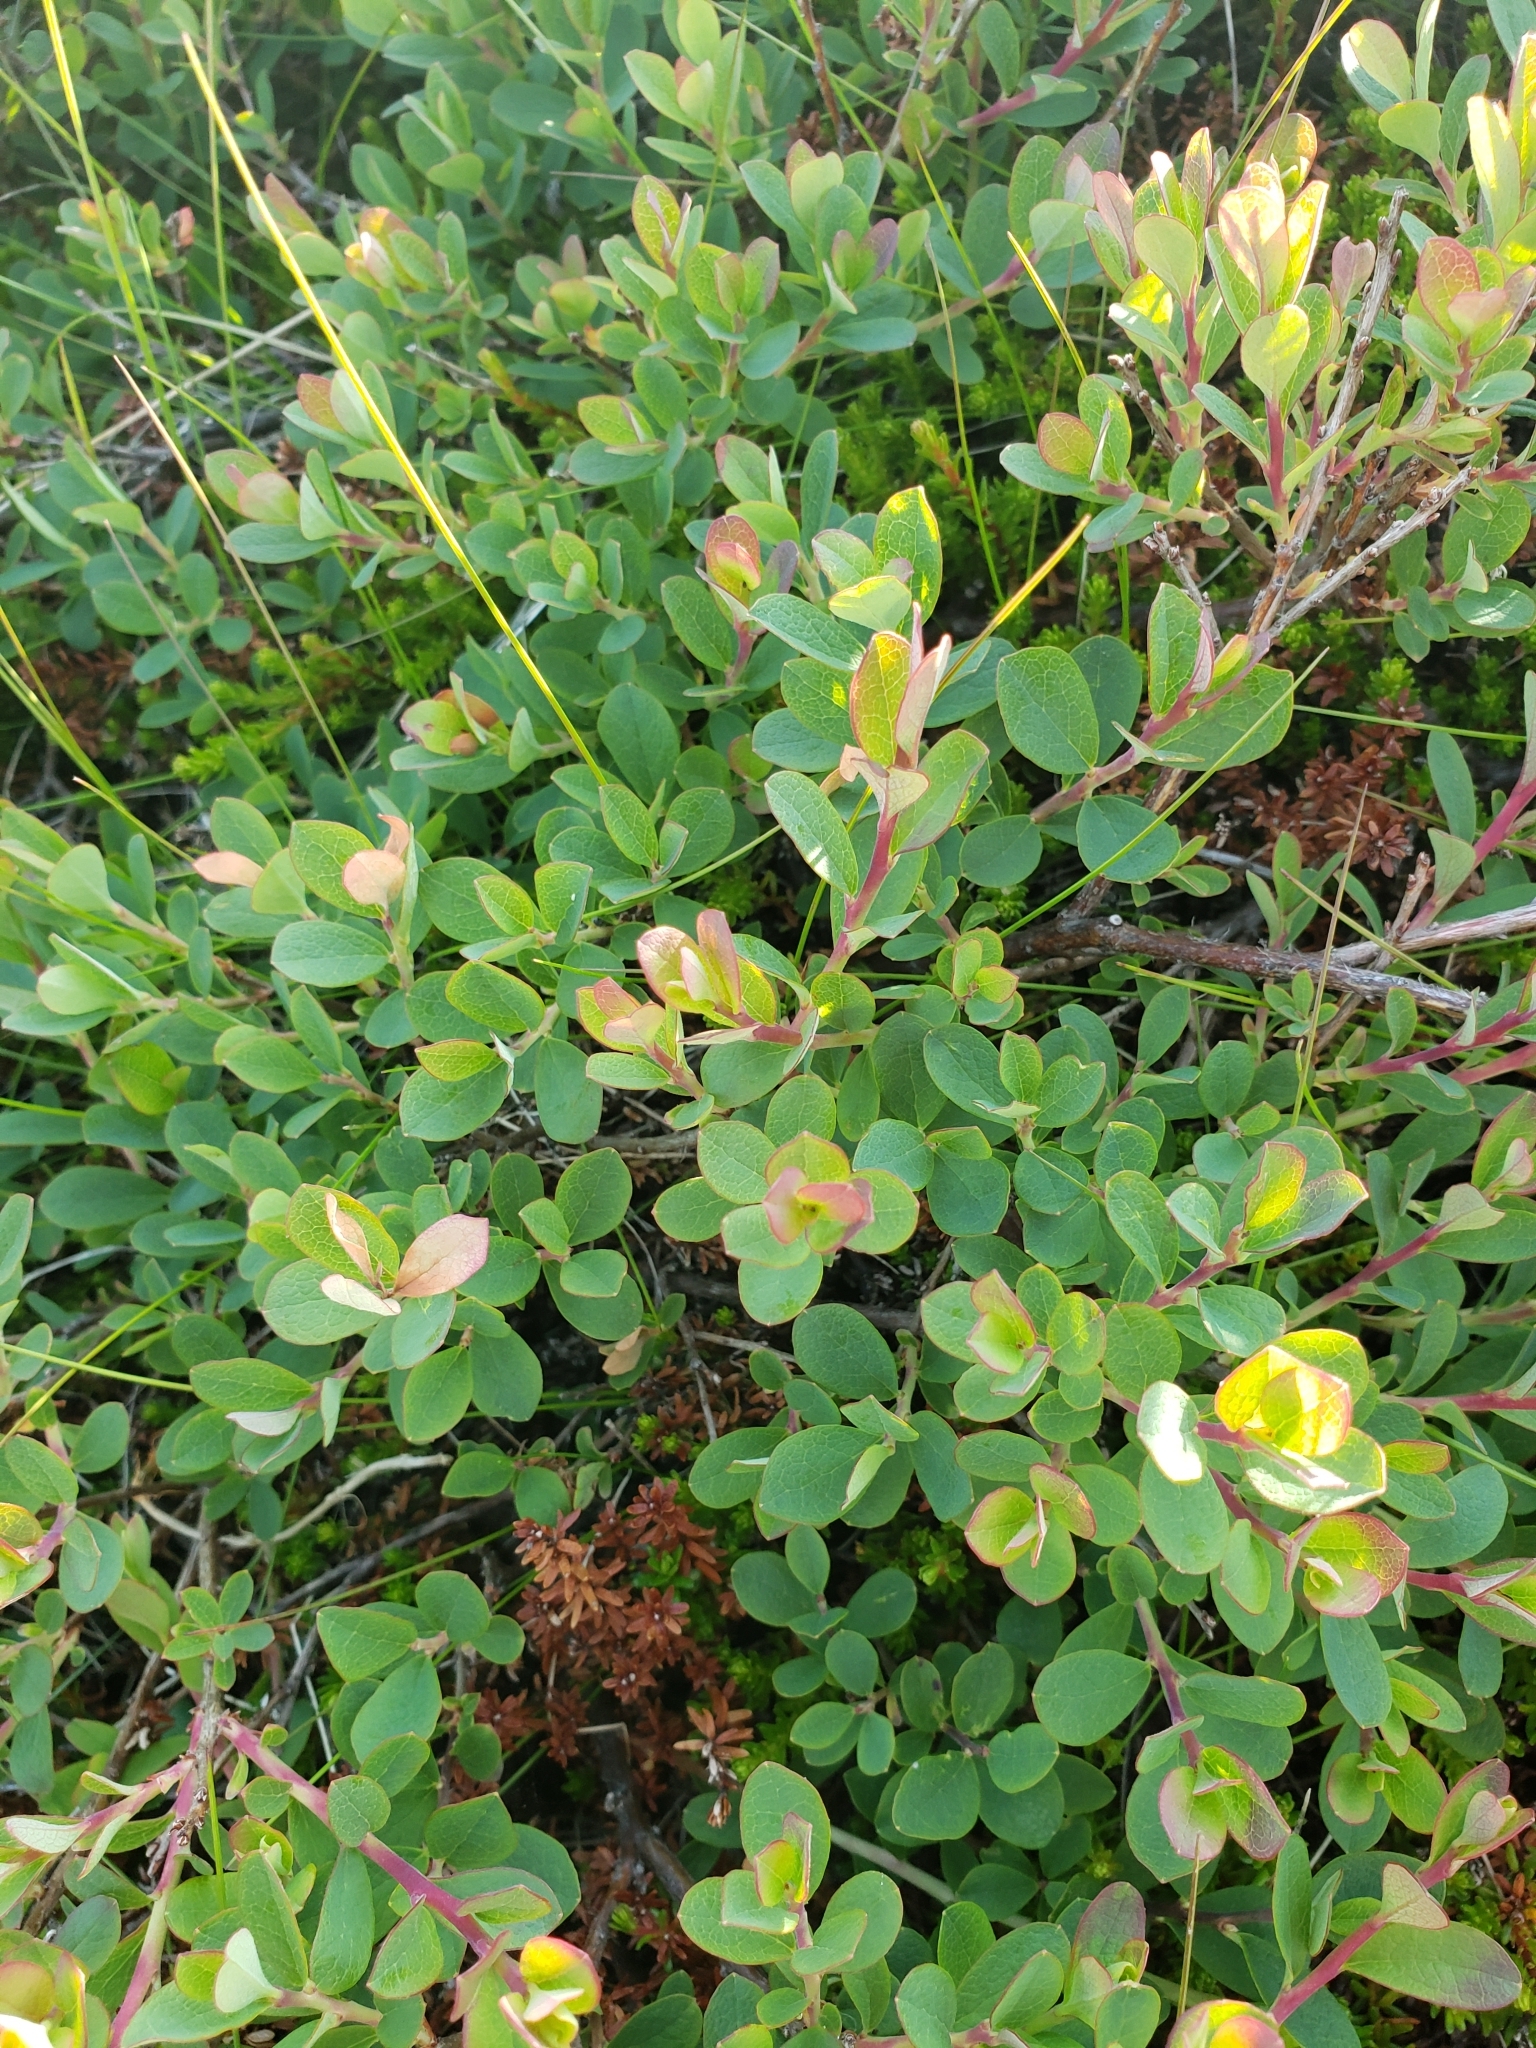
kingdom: Plantae
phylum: Tracheophyta
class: Magnoliopsida
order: Ericales
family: Ericaceae
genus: Vaccinium
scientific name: Vaccinium uliginosum
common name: Bog bilberry
